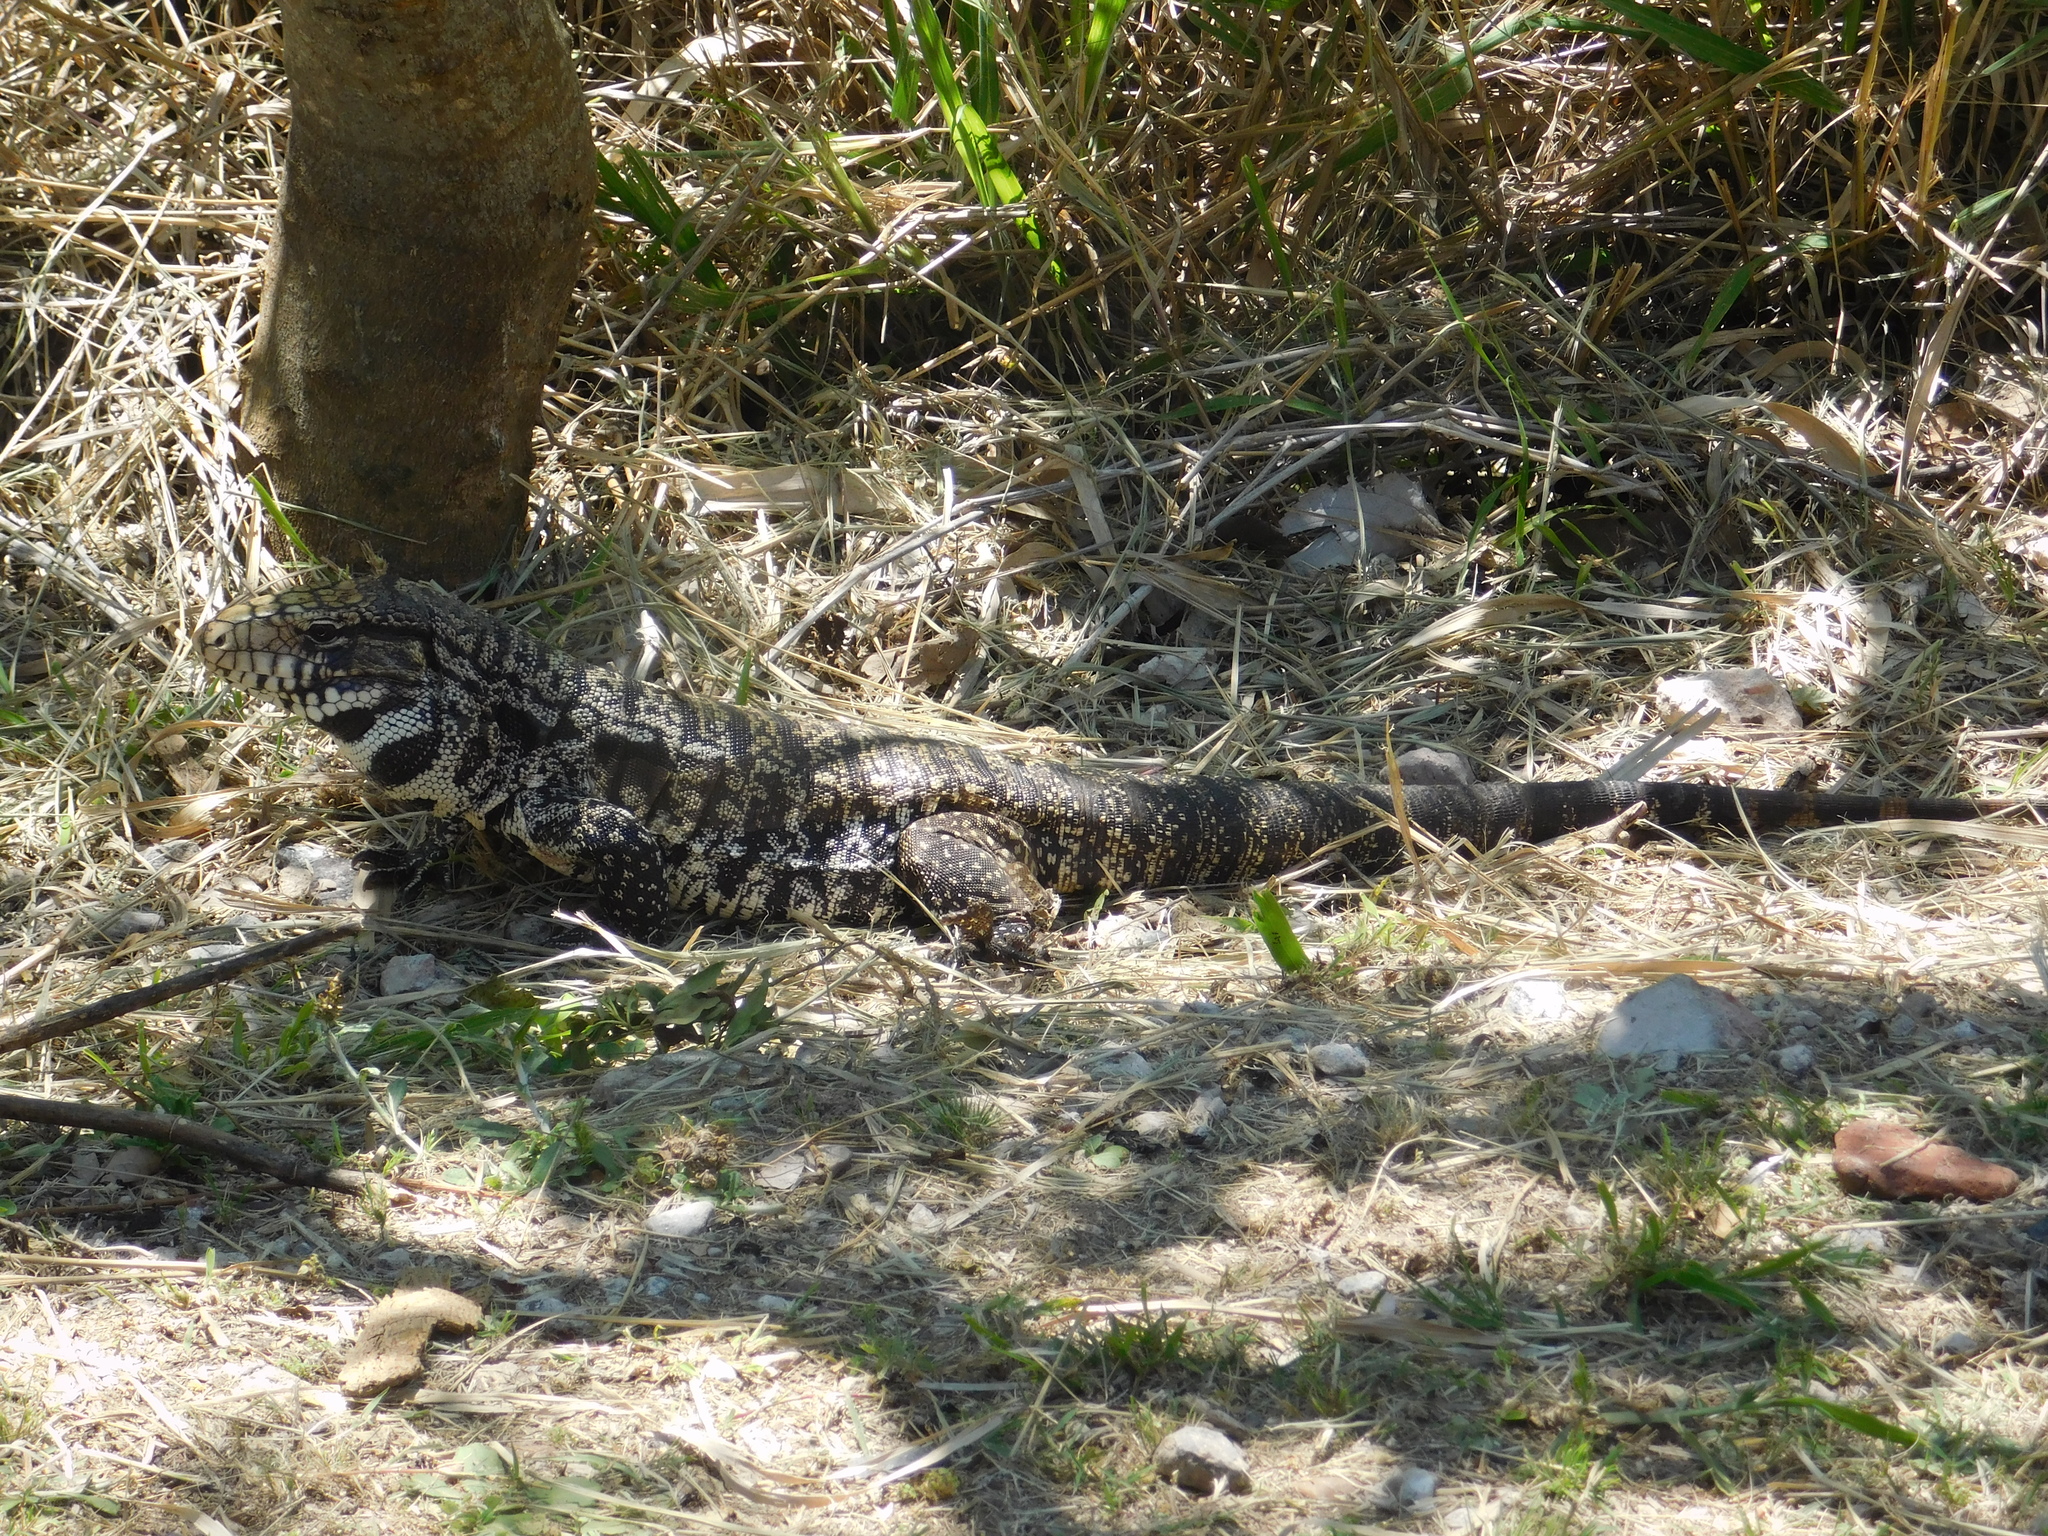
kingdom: Animalia
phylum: Chordata
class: Squamata
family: Teiidae
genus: Salvator
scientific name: Salvator merianae
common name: Argentine black and white tegu
